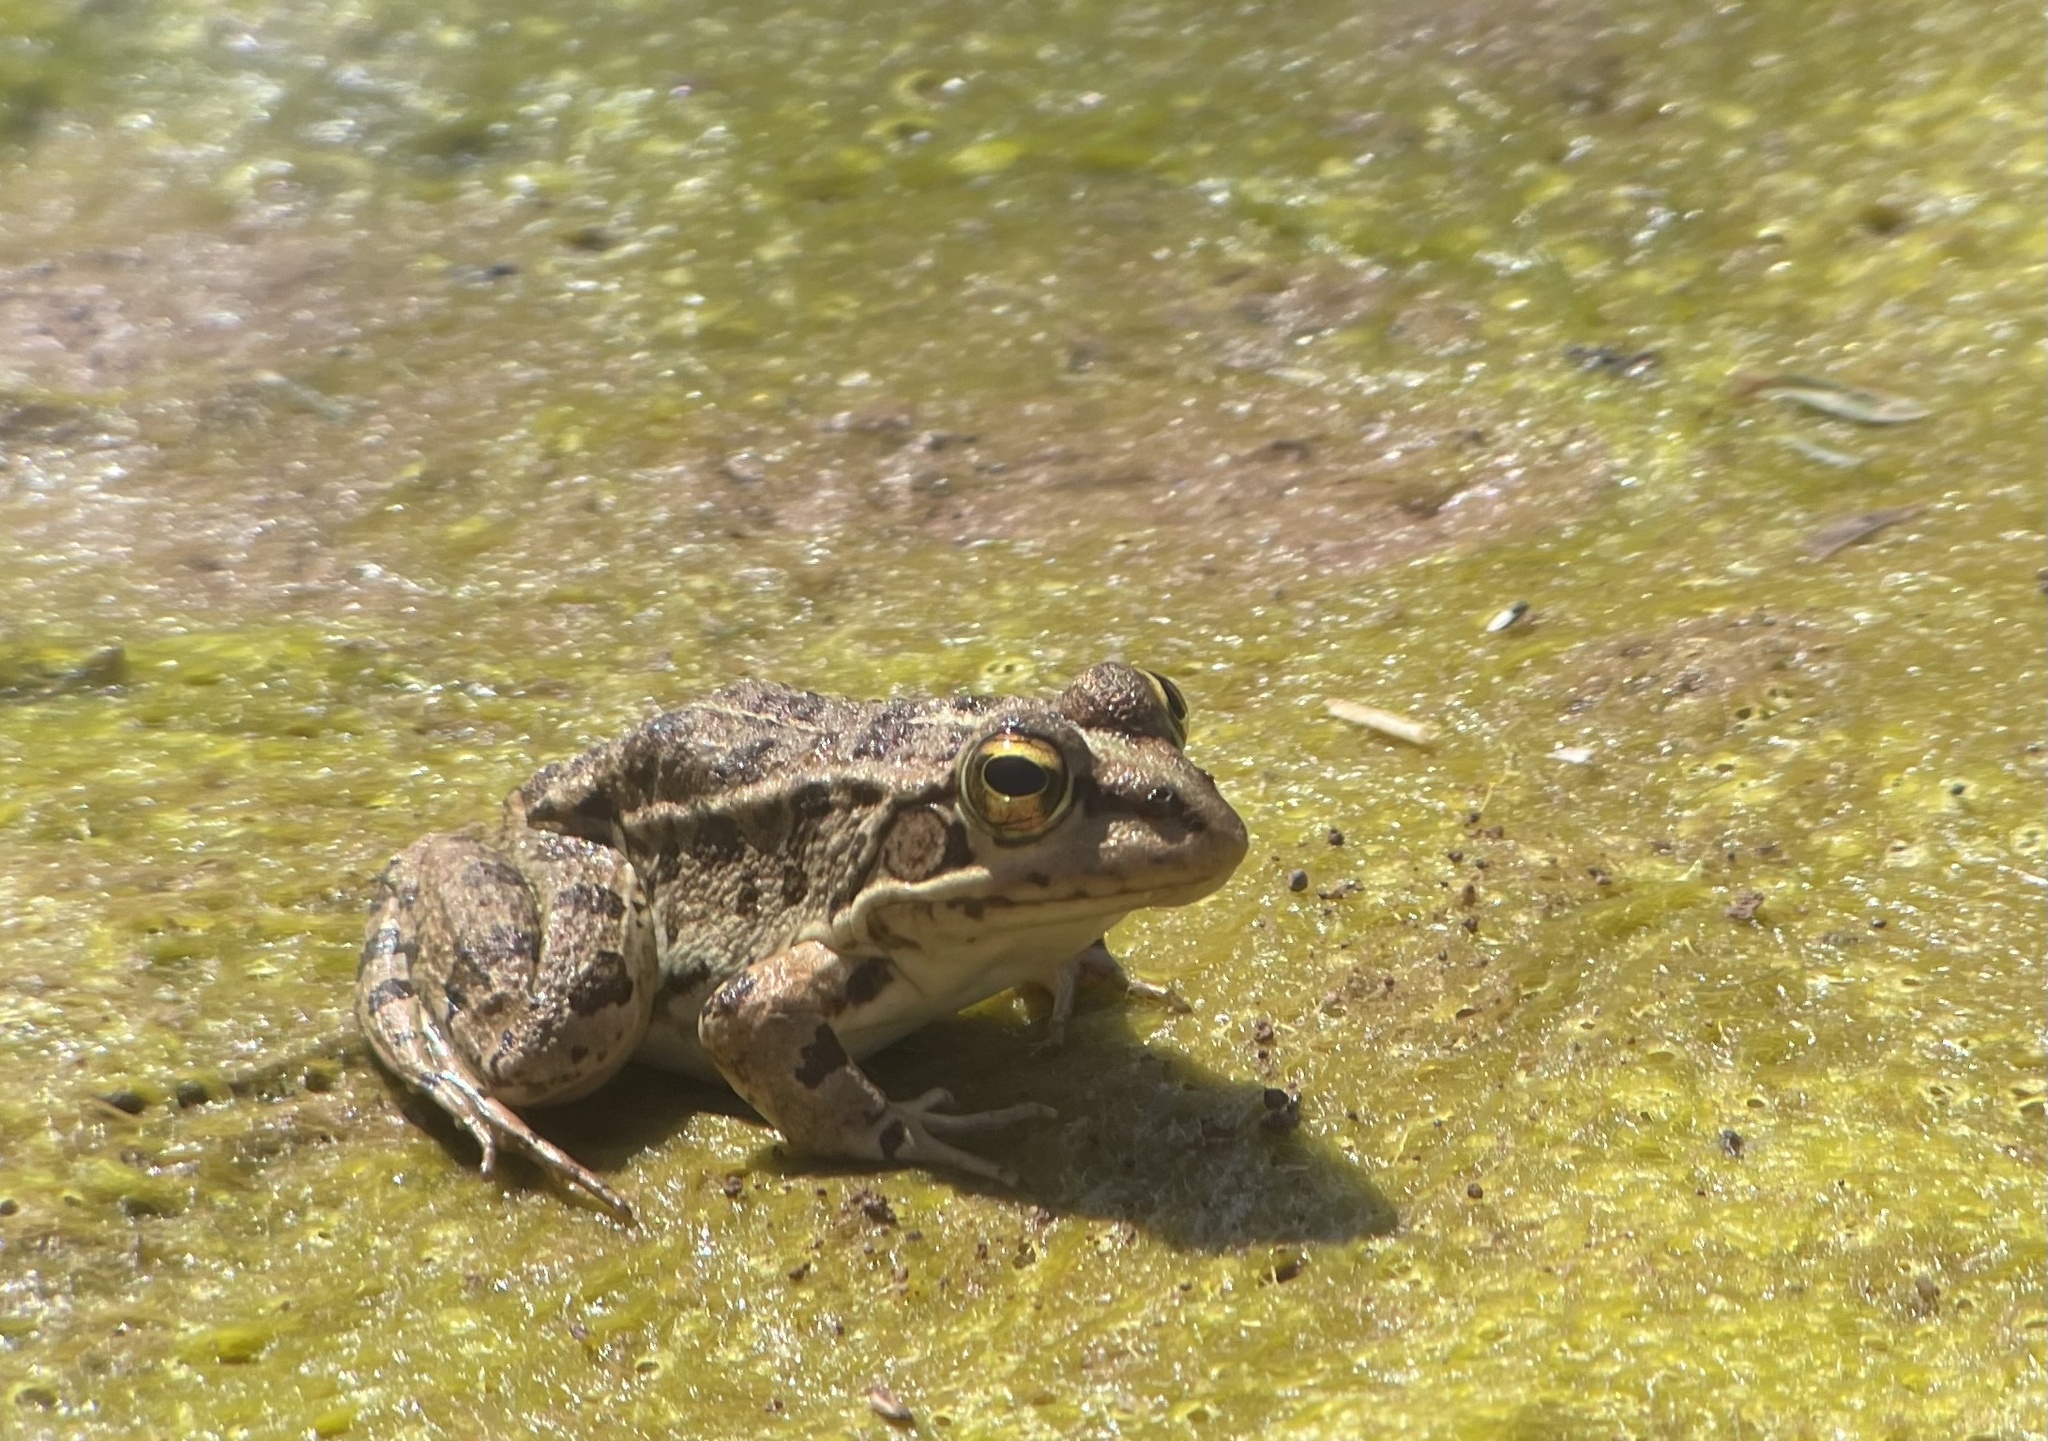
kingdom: Animalia
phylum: Chordata
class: Amphibia
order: Anura
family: Ranidae
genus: Pelophylax
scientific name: Pelophylax saharicus
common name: Sahara frog
